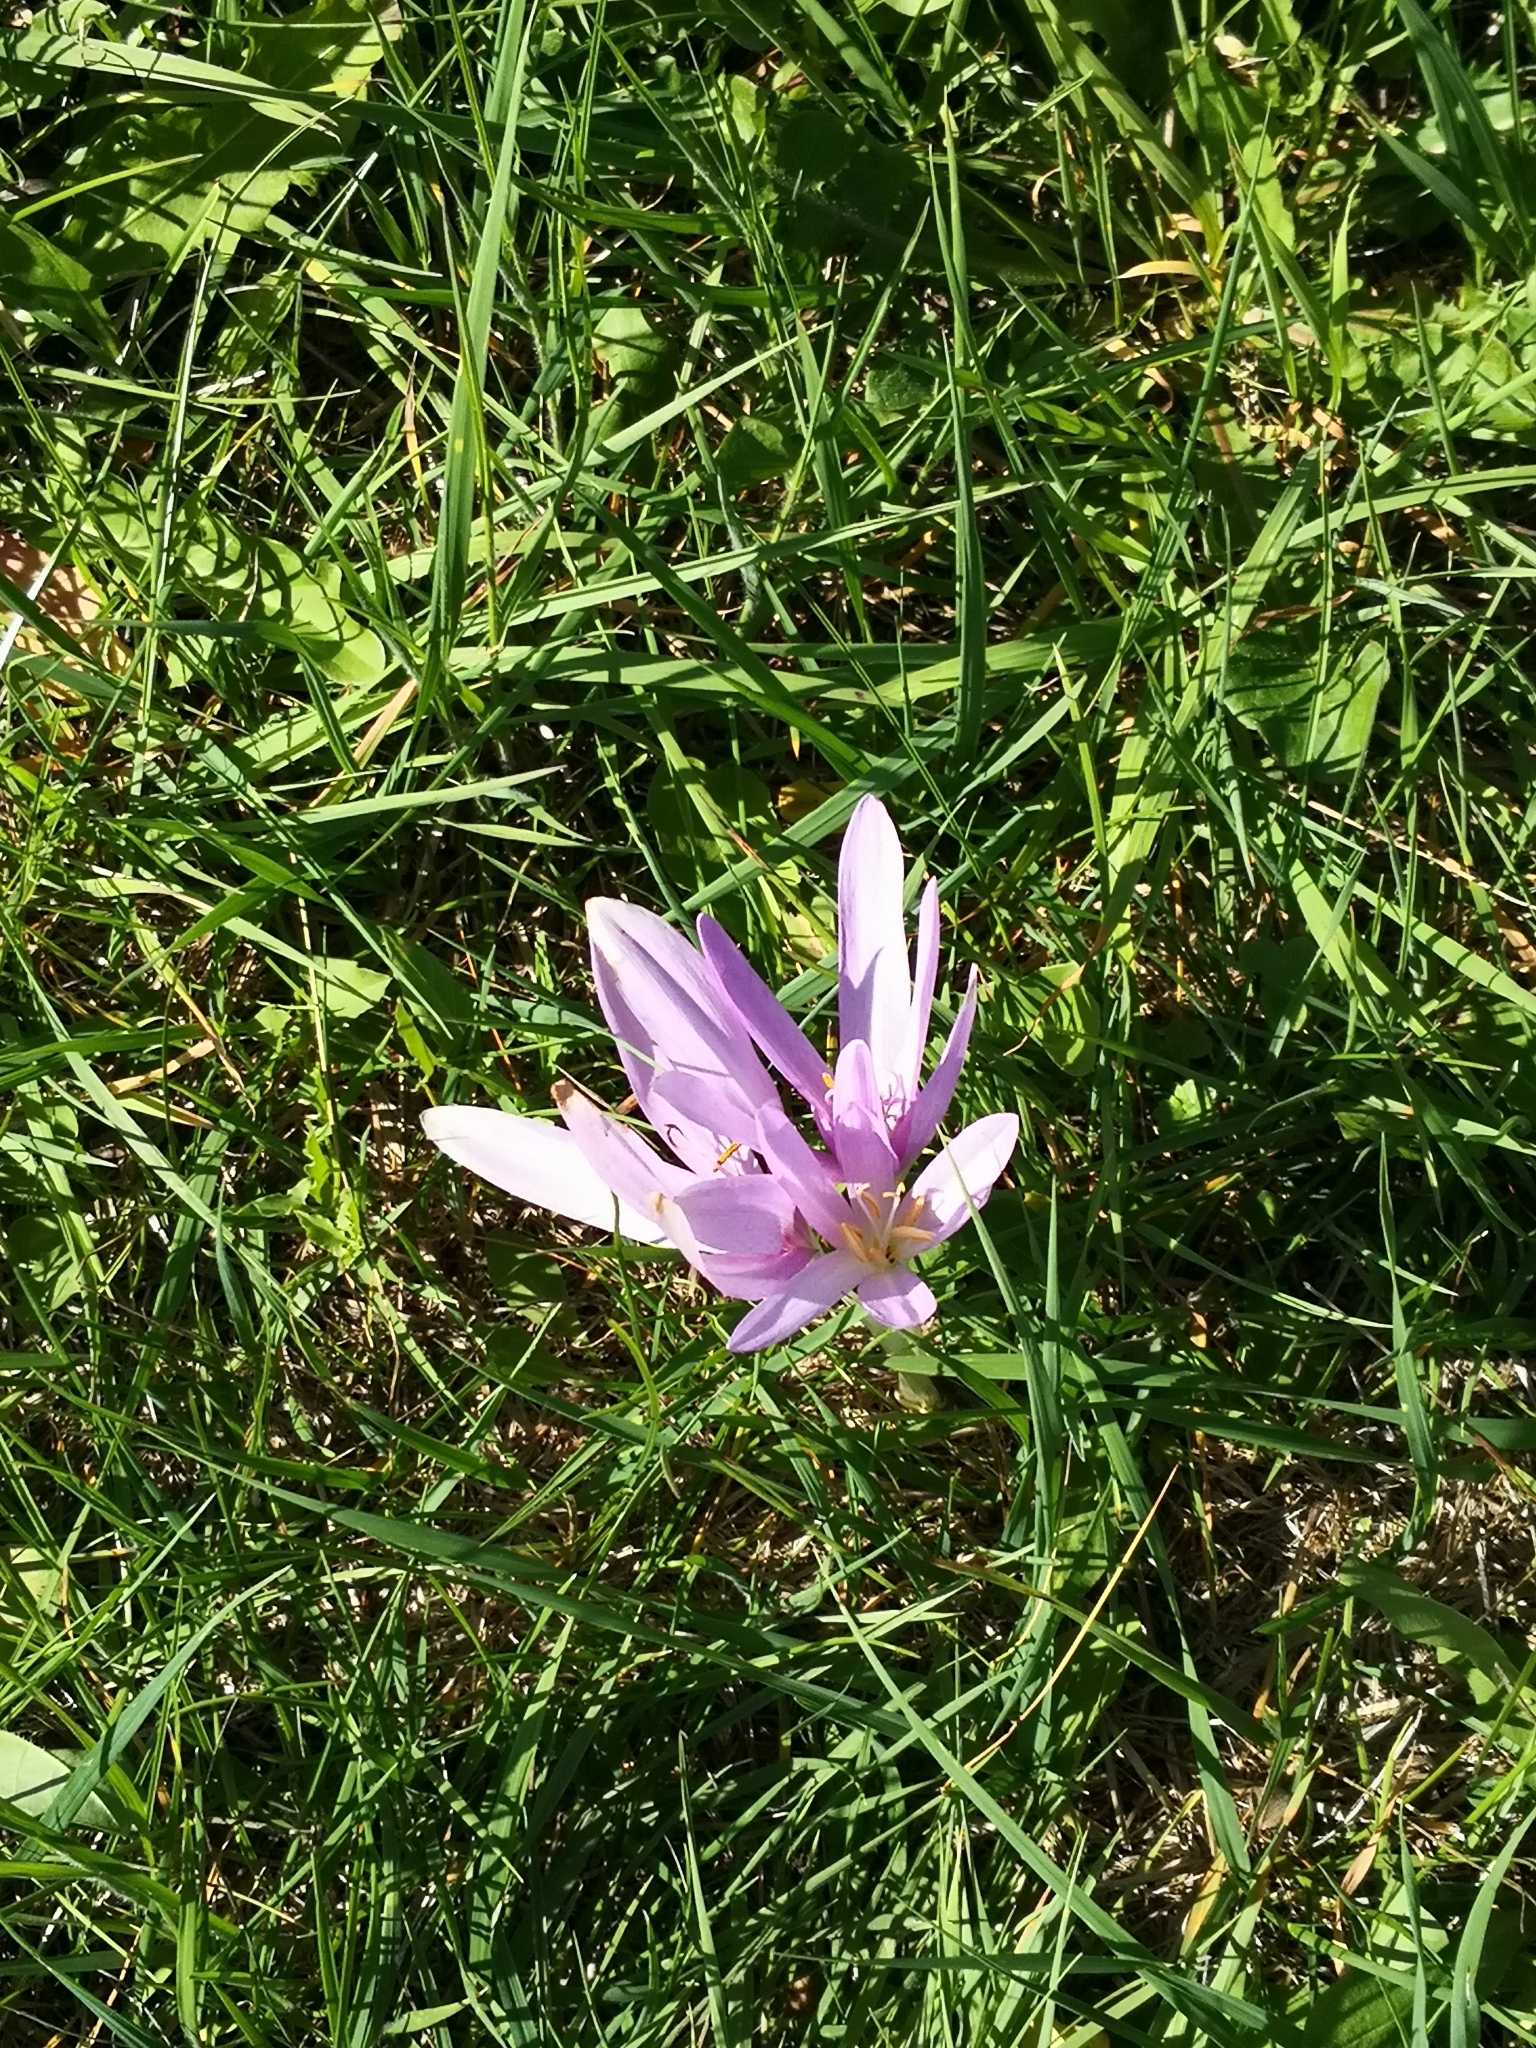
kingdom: Plantae
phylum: Tracheophyta
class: Liliopsida
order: Liliales
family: Colchicaceae
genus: Colchicum
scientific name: Colchicum autumnale
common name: Autumn crocus
